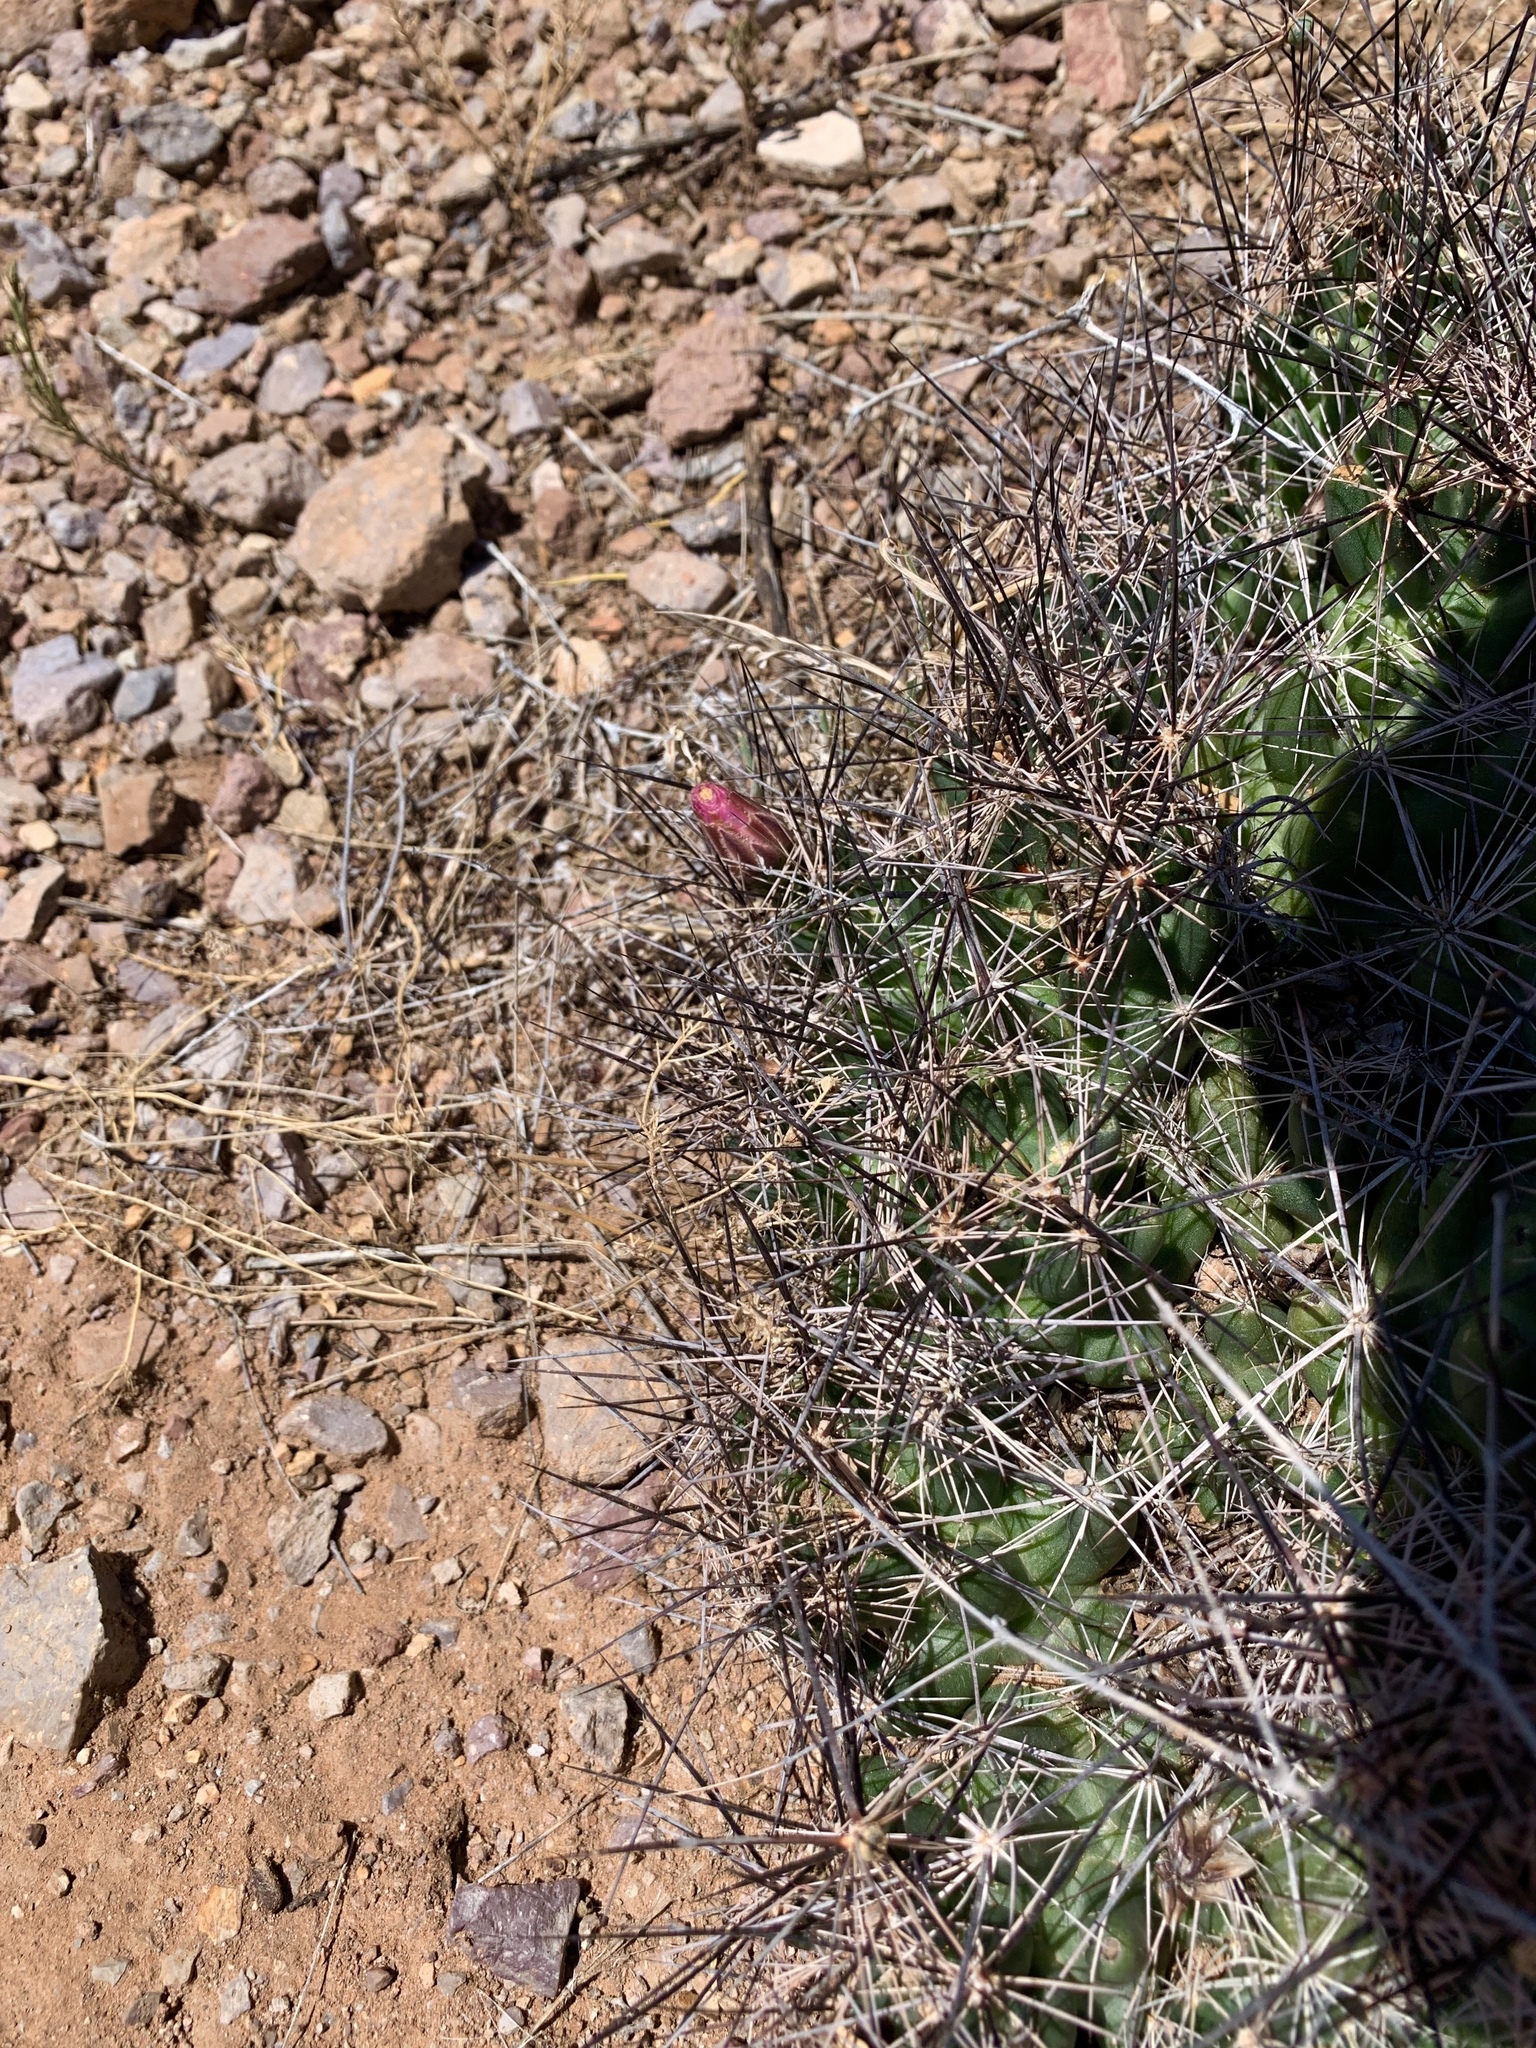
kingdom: Plantae
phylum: Tracheophyta
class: Magnoliopsida
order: Caryophyllales
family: Cactaceae
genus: Coryphantha
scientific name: Coryphantha macromeris
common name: Nipple beehive cactus
